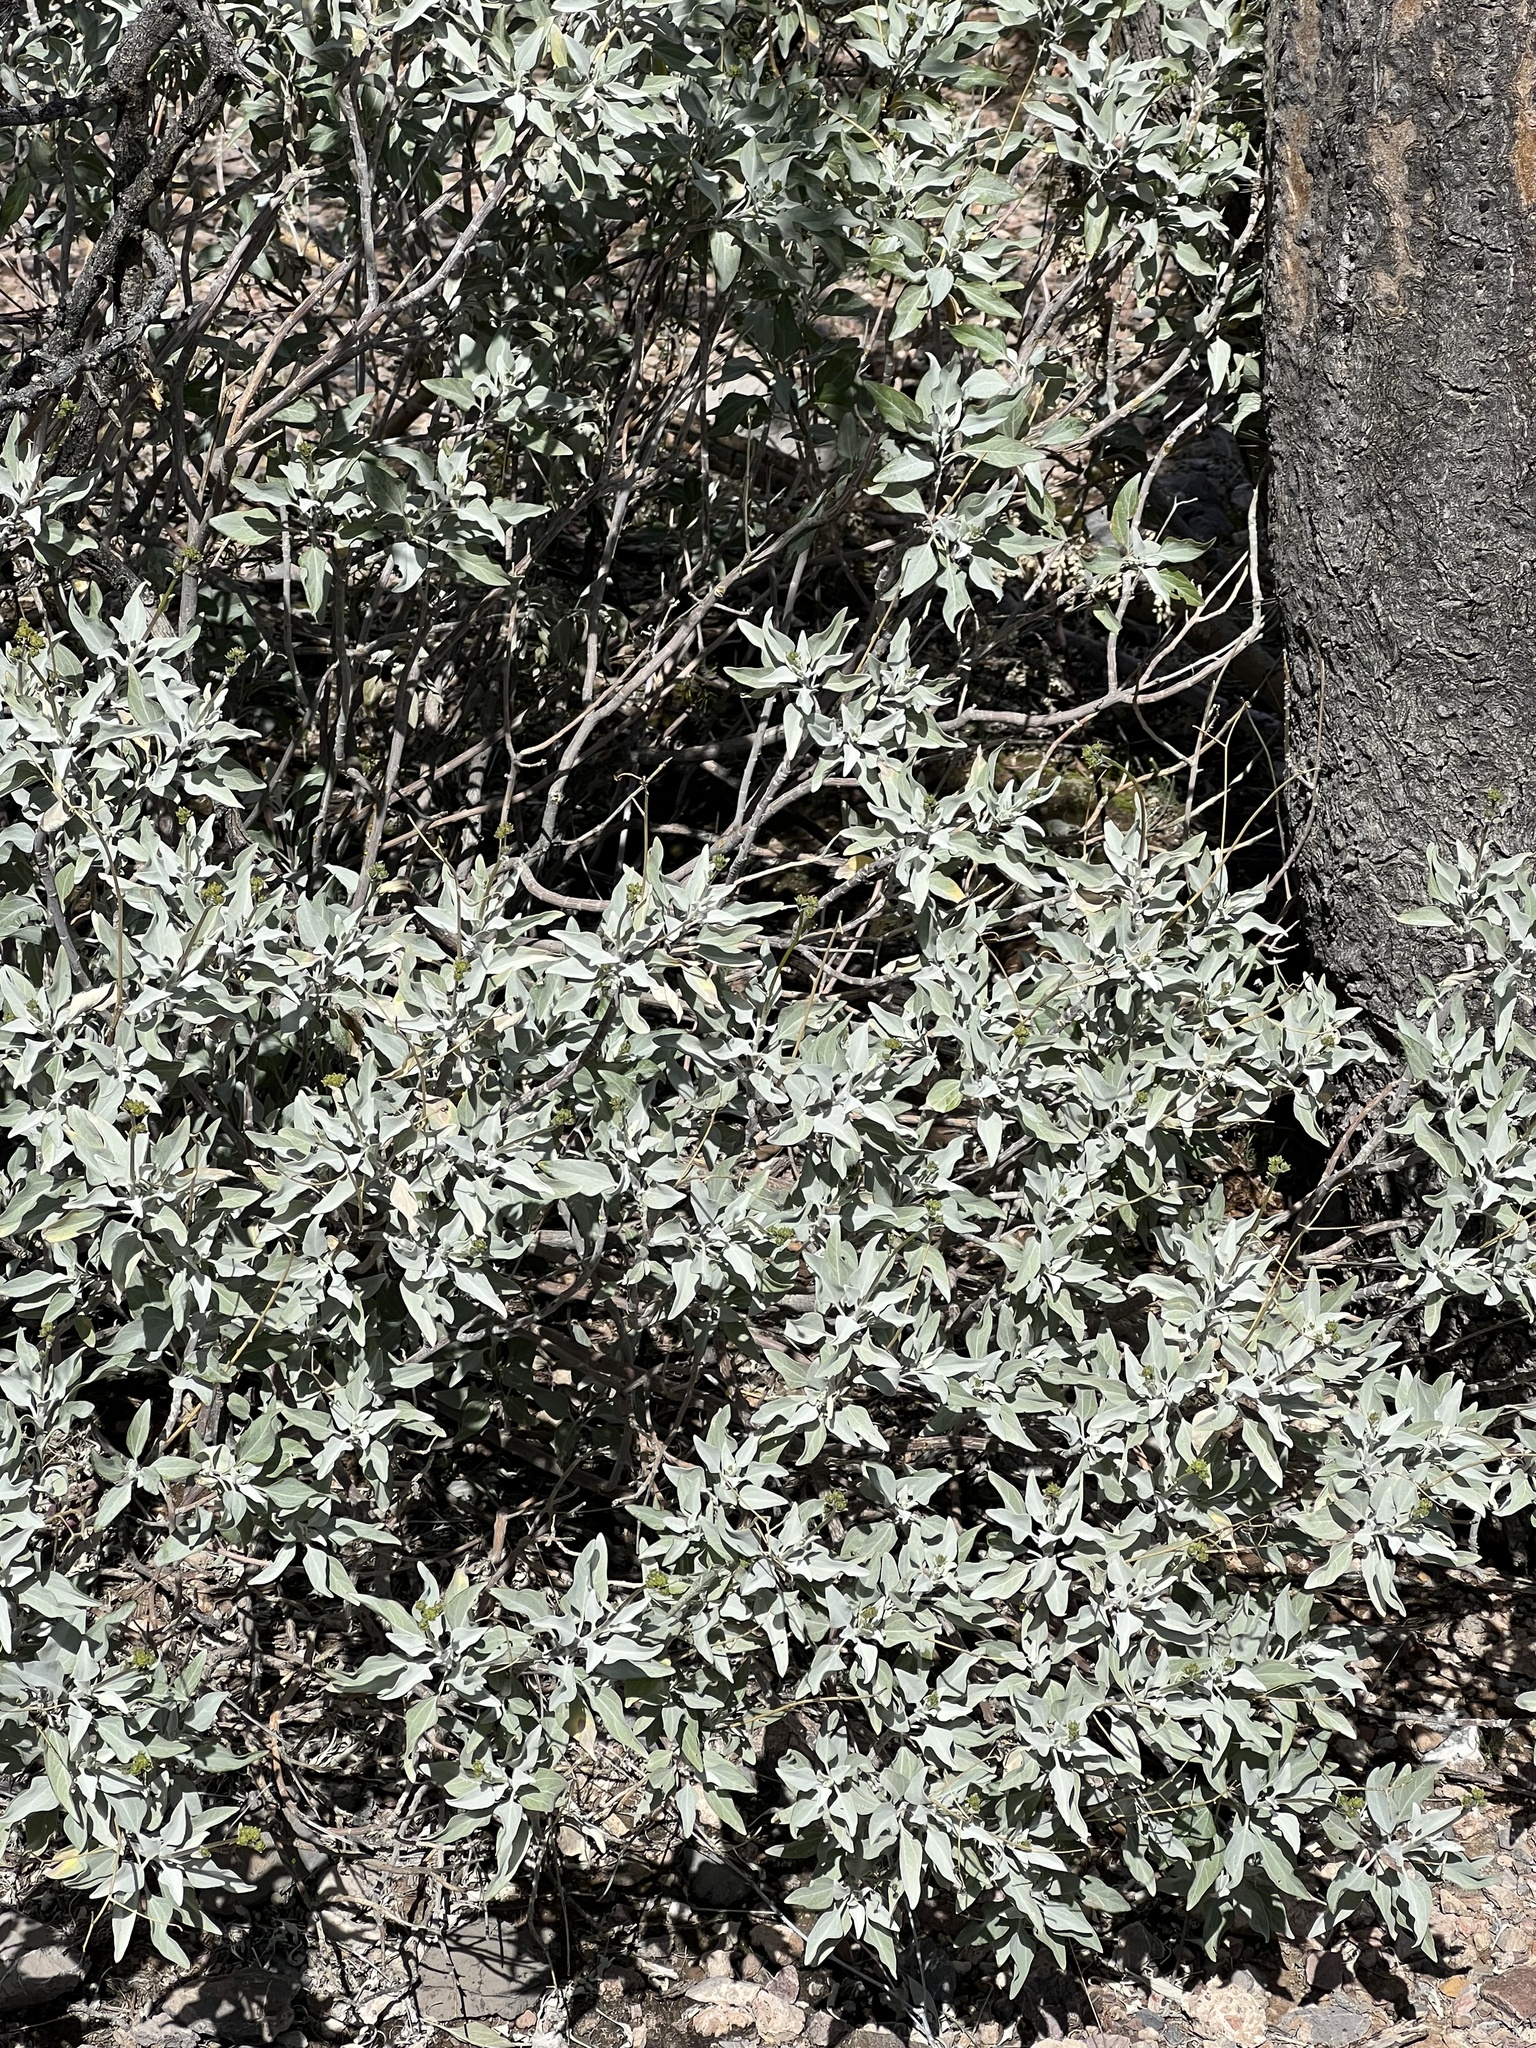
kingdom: Plantae
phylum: Tracheophyta
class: Magnoliopsida
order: Asterales
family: Asteraceae
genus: Encelia
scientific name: Encelia farinosa
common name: Brittlebush
